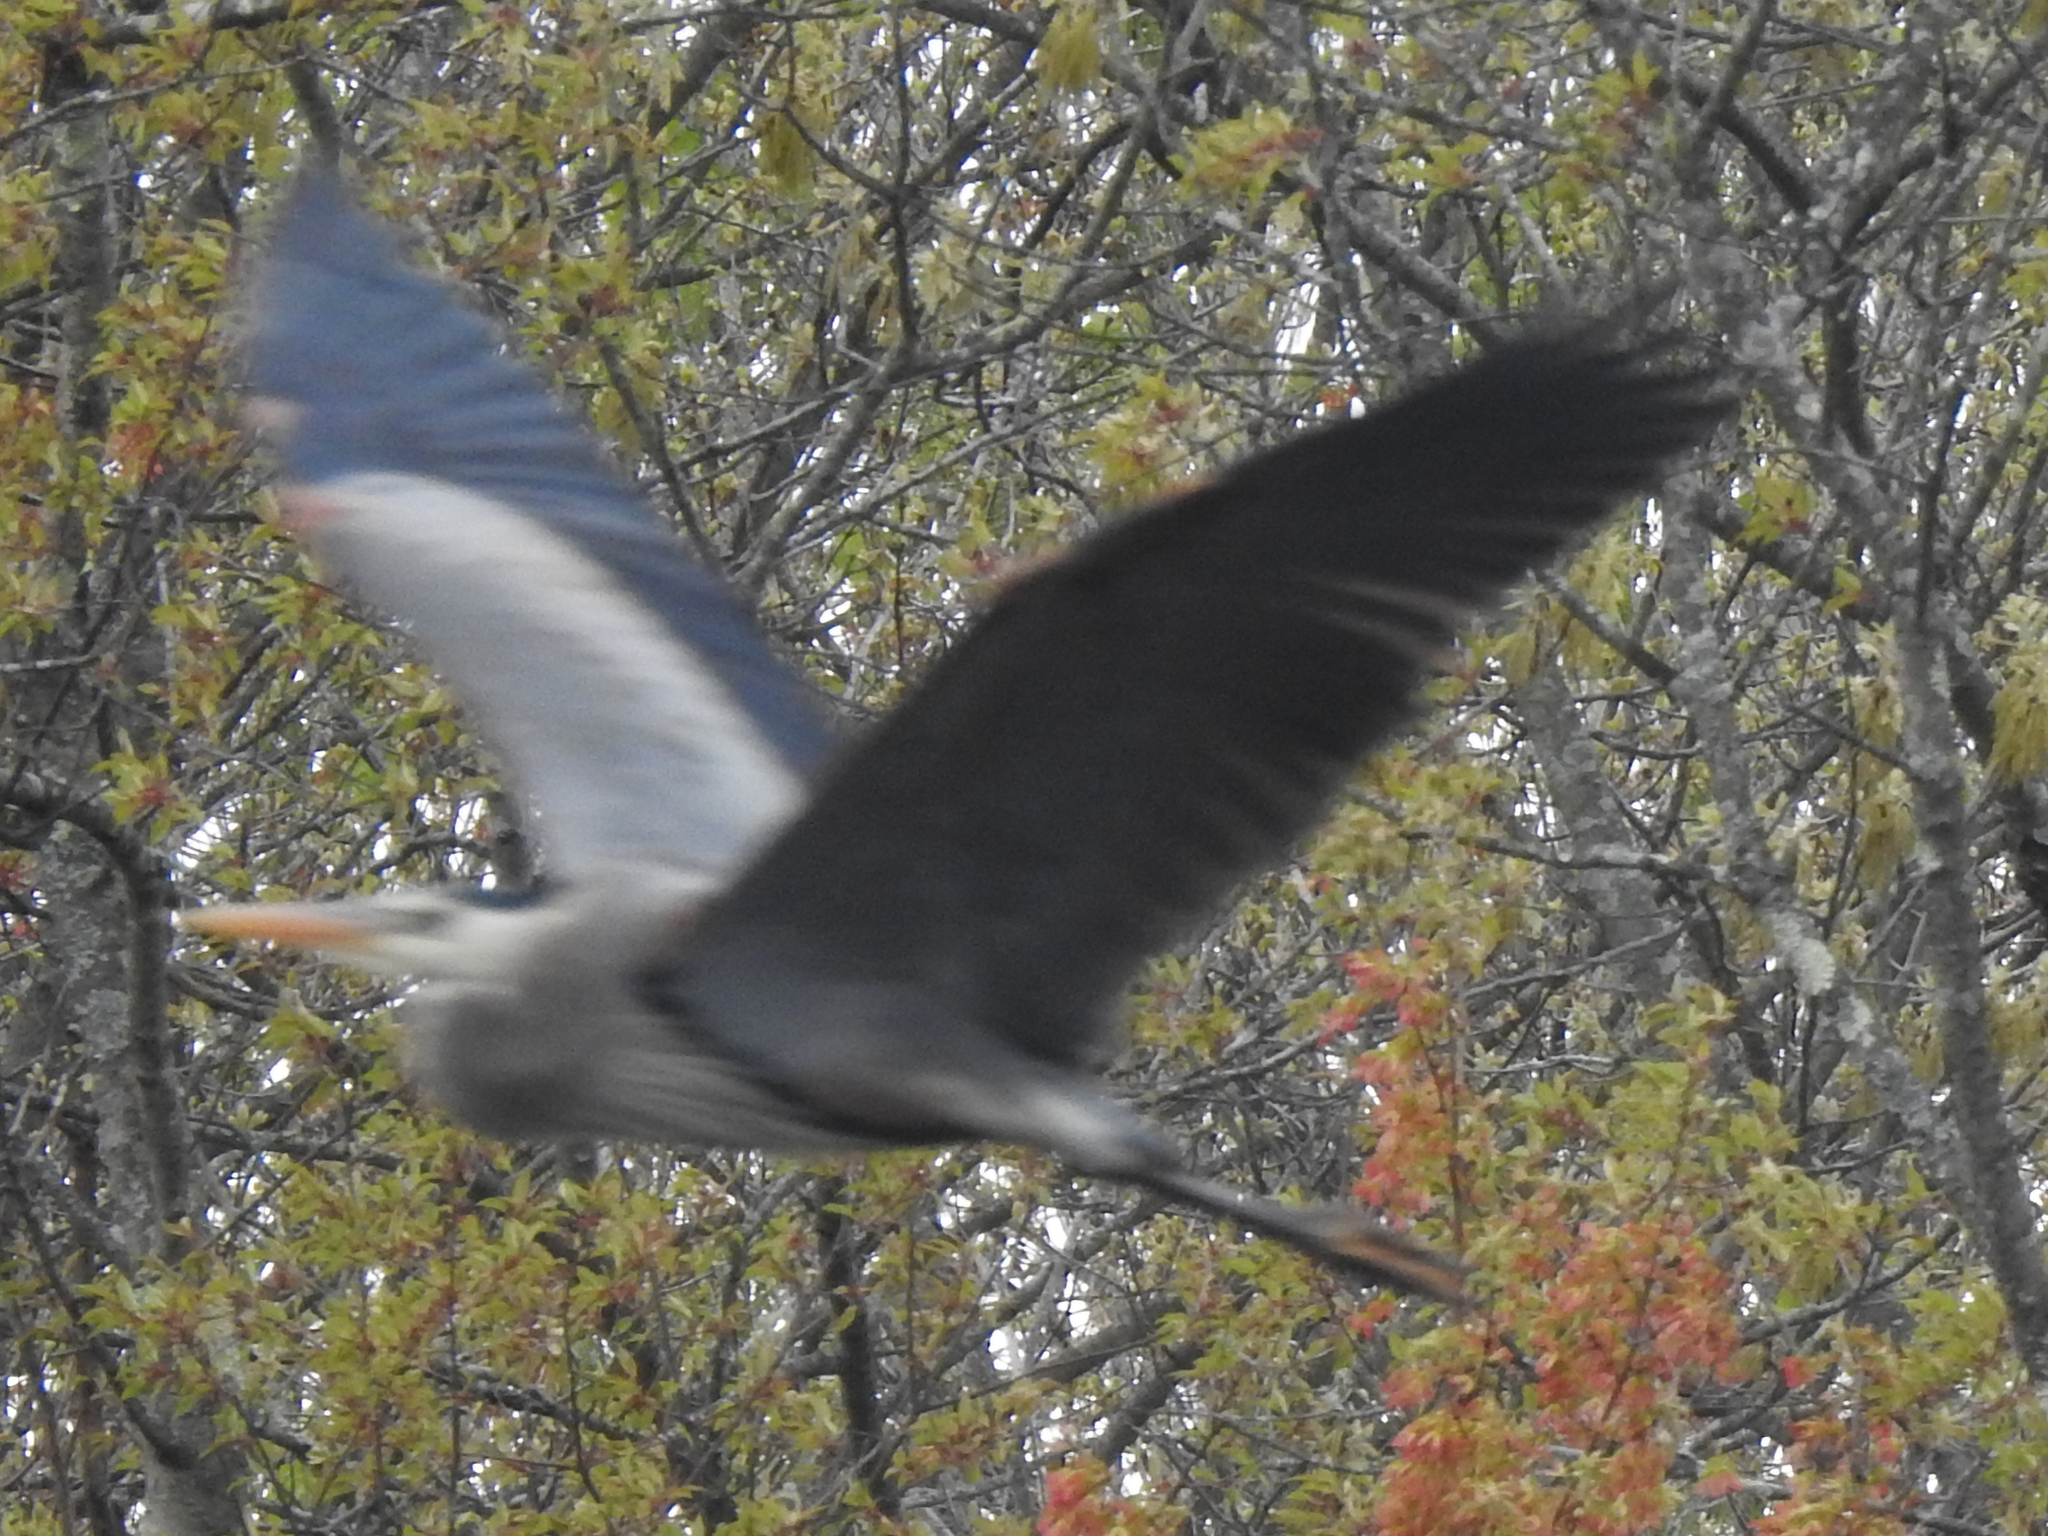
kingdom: Animalia
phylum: Chordata
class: Aves
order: Pelecaniformes
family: Ardeidae
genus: Ardea
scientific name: Ardea herodias
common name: Great blue heron
